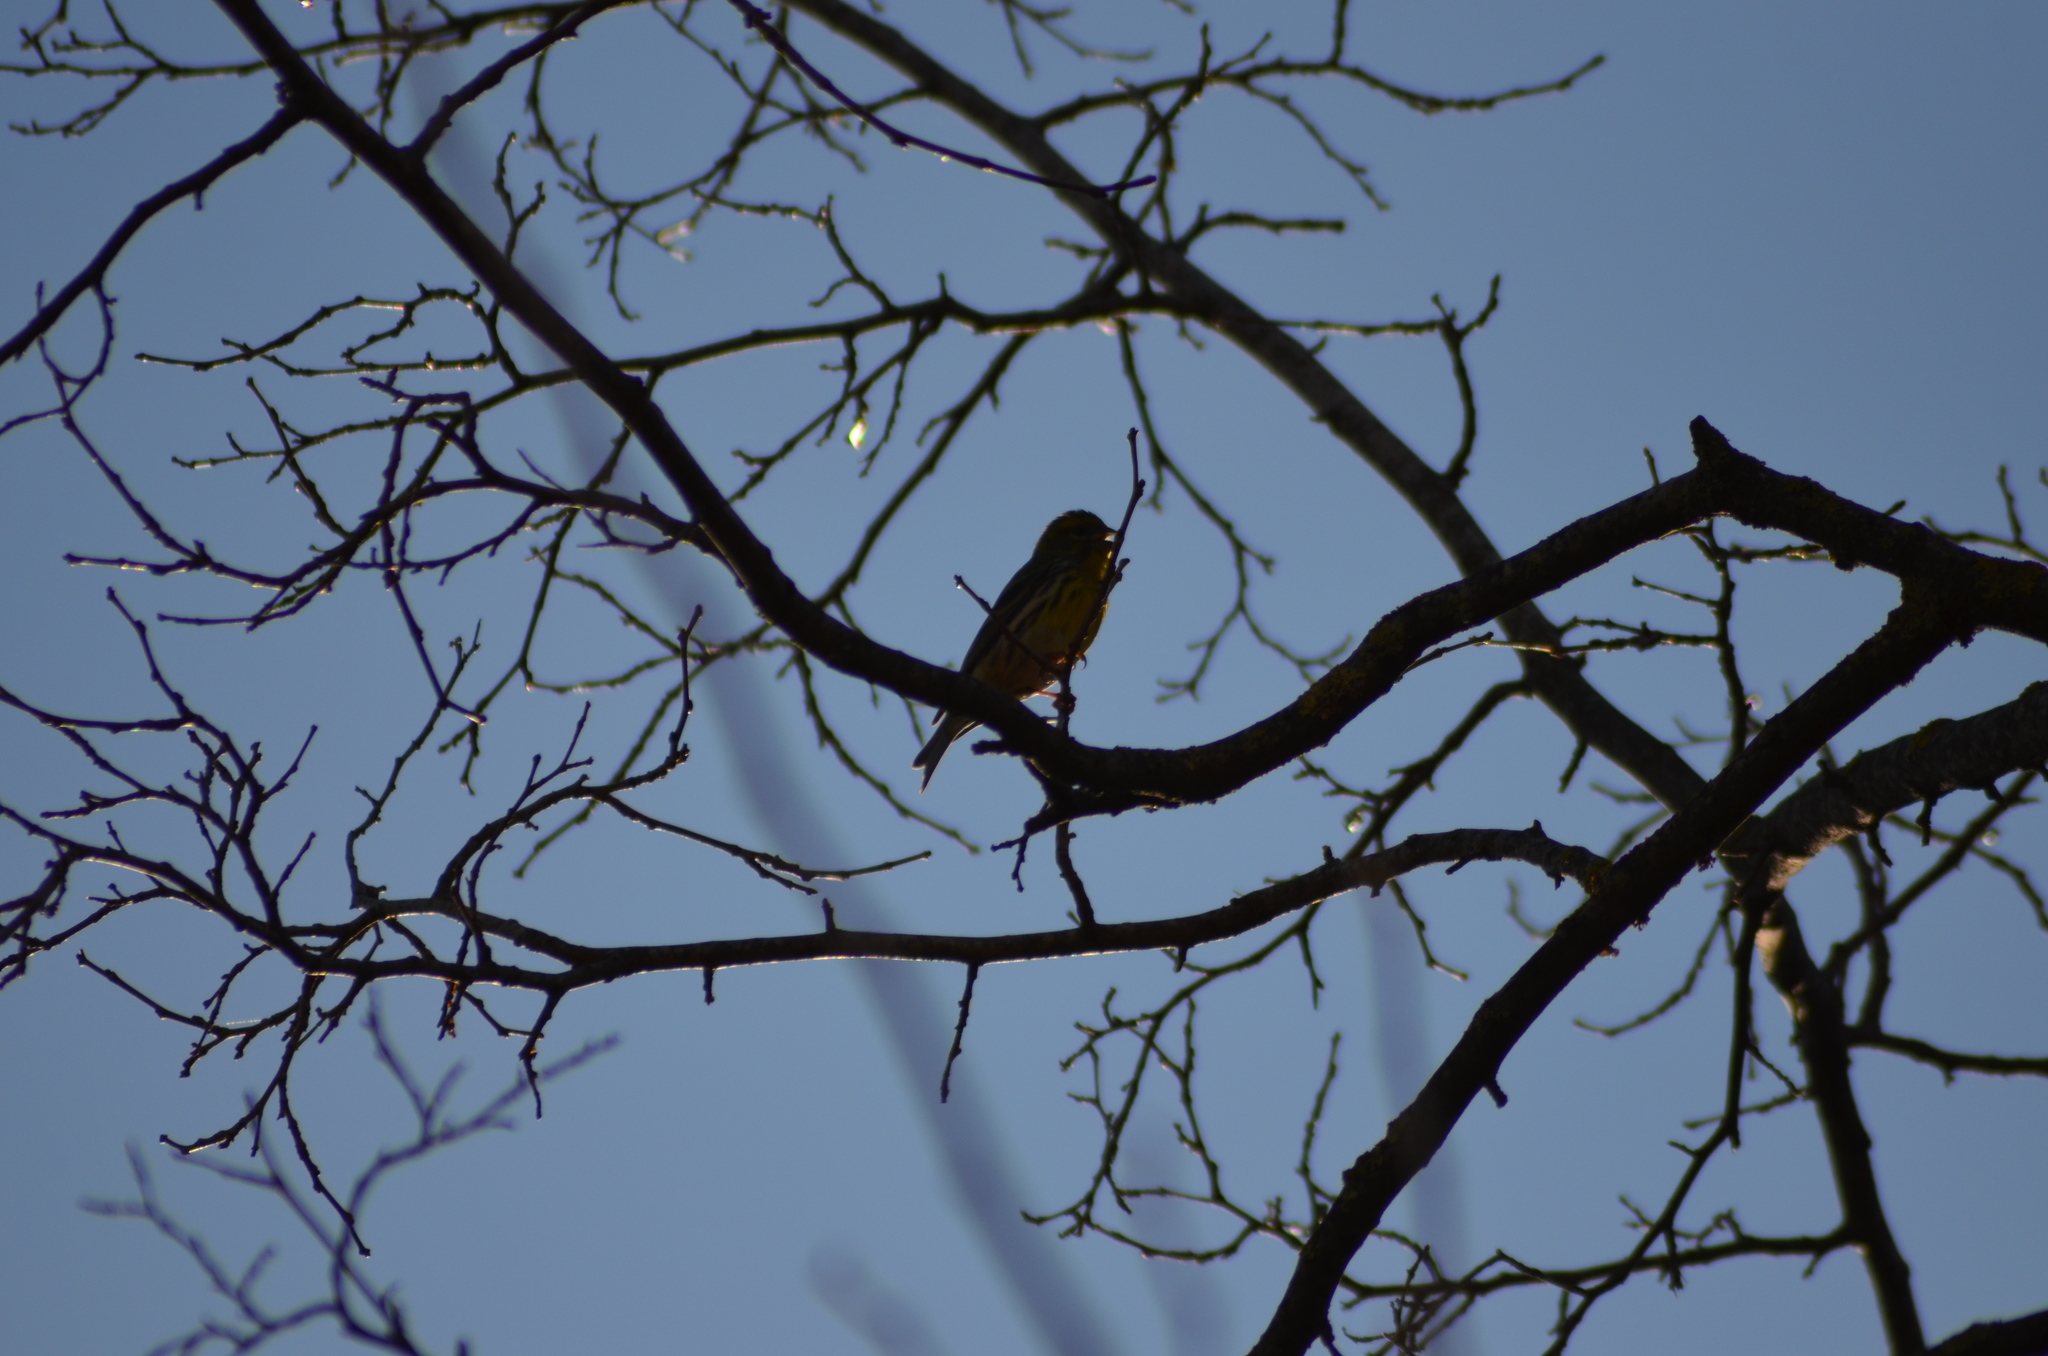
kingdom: Animalia
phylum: Chordata
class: Aves
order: Passeriformes
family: Fringillidae
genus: Serinus
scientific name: Serinus serinus
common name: European serin
